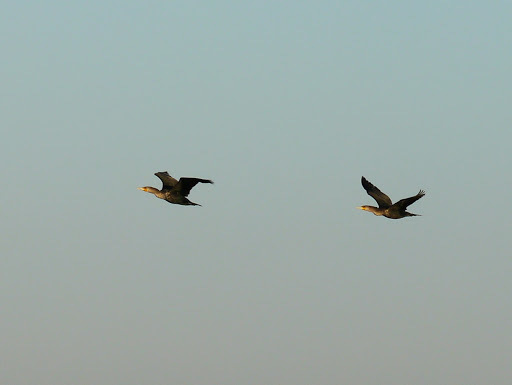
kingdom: Animalia
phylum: Chordata
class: Aves
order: Suliformes
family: Phalacrocoracidae
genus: Phalacrocorax
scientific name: Phalacrocorax auritus
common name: Double-crested cormorant
